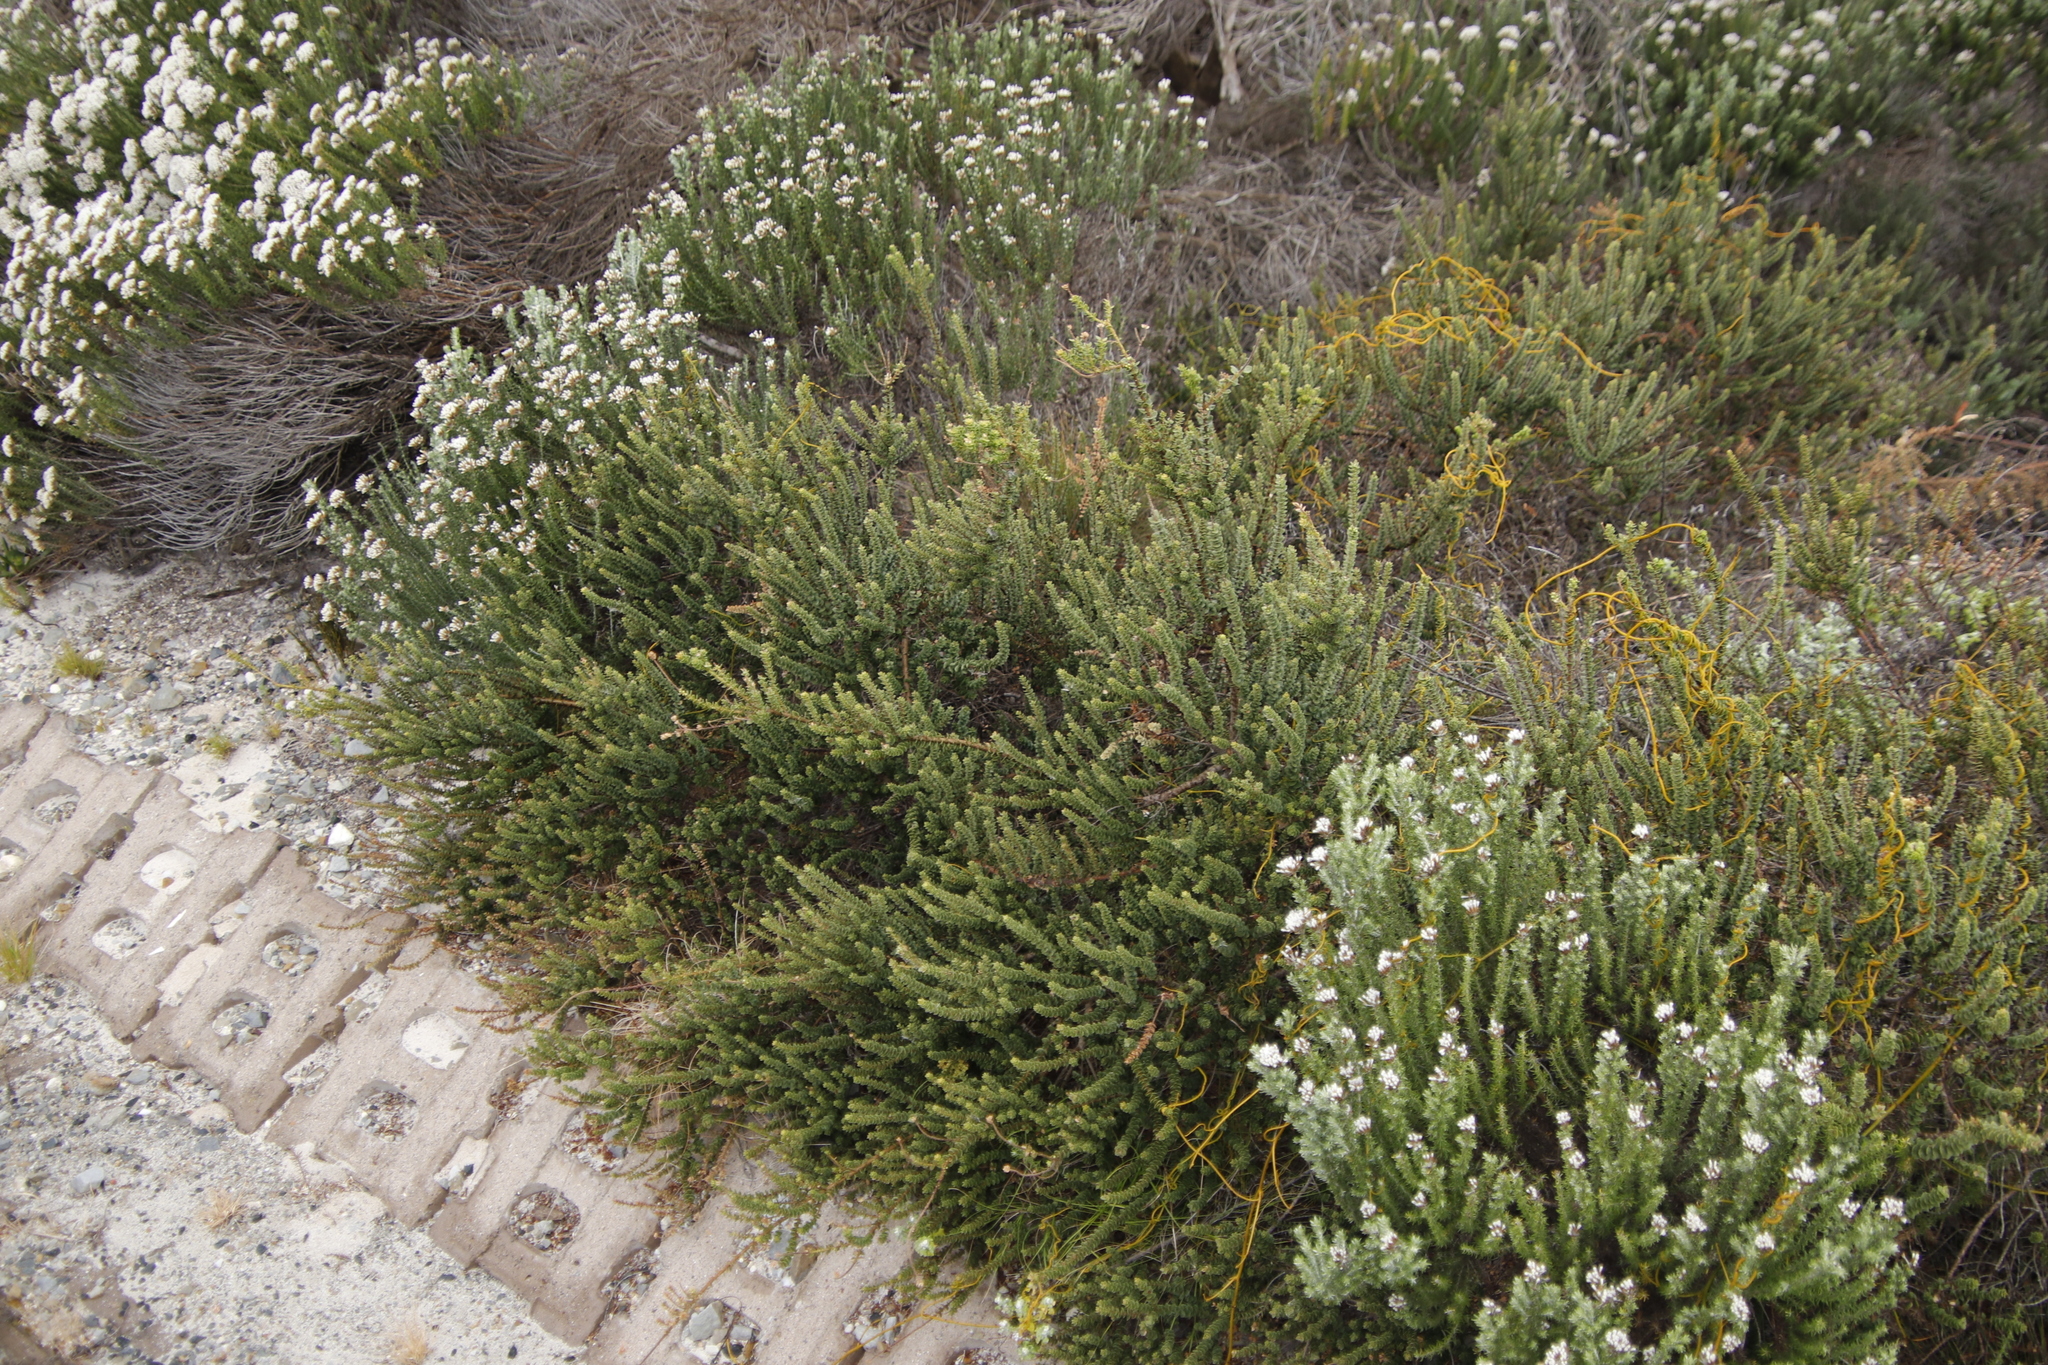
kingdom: Plantae
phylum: Tracheophyta
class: Magnoliopsida
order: Fagales
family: Myricaceae
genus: Morella
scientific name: Morella cordifolia
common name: Waxberry
